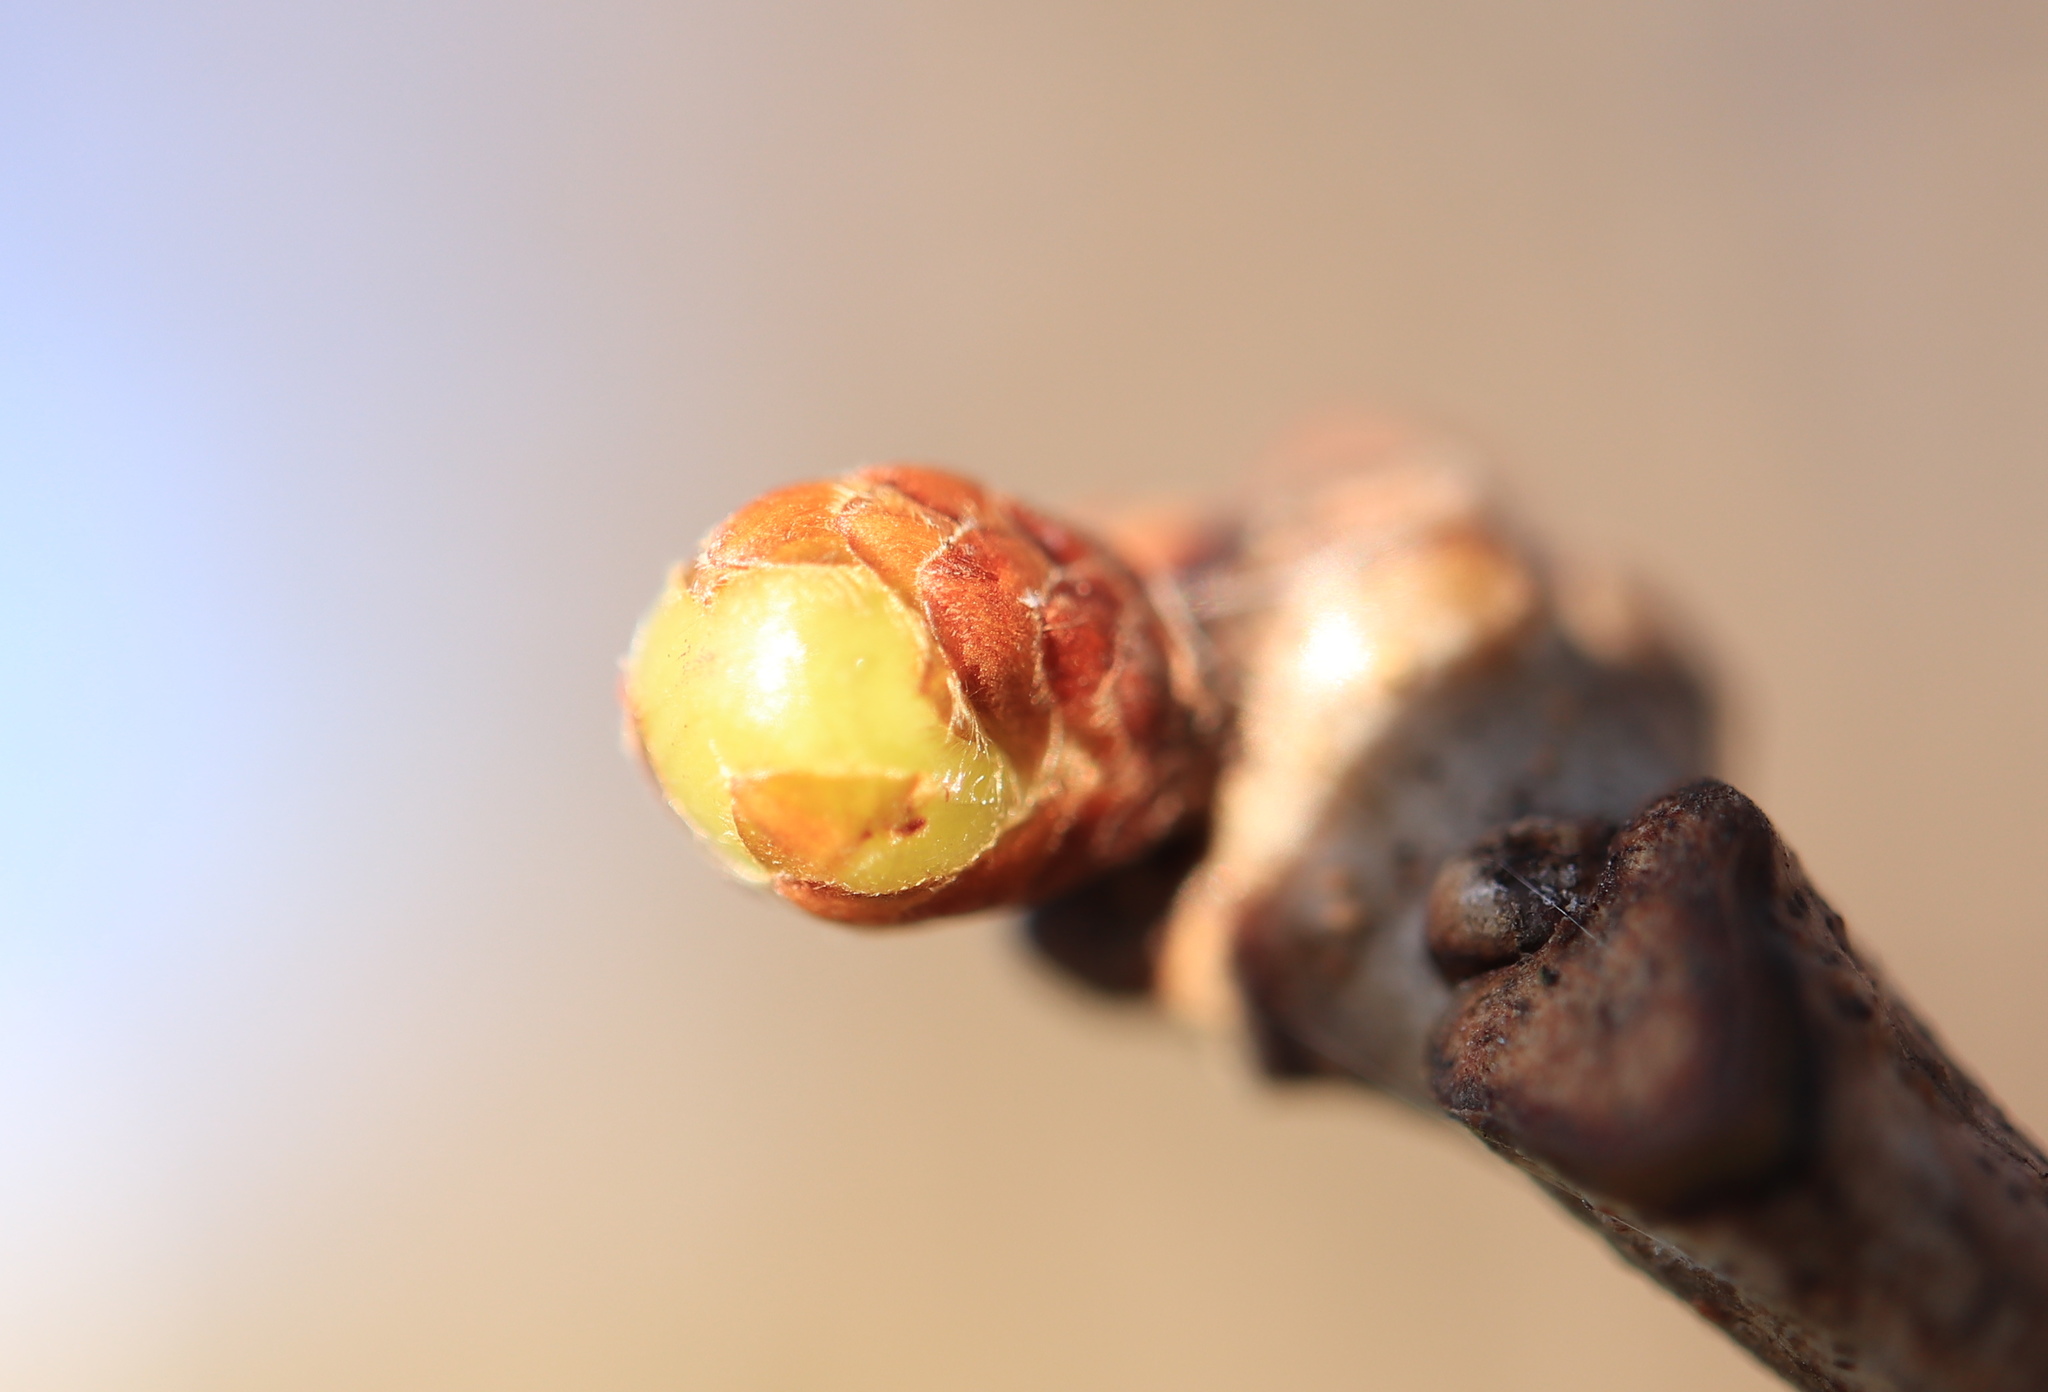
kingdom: Animalia
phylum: Arthropoda
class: Insecta
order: Hymenoptera
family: Cynipidae
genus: Neuroterus
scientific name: Neuroterus
